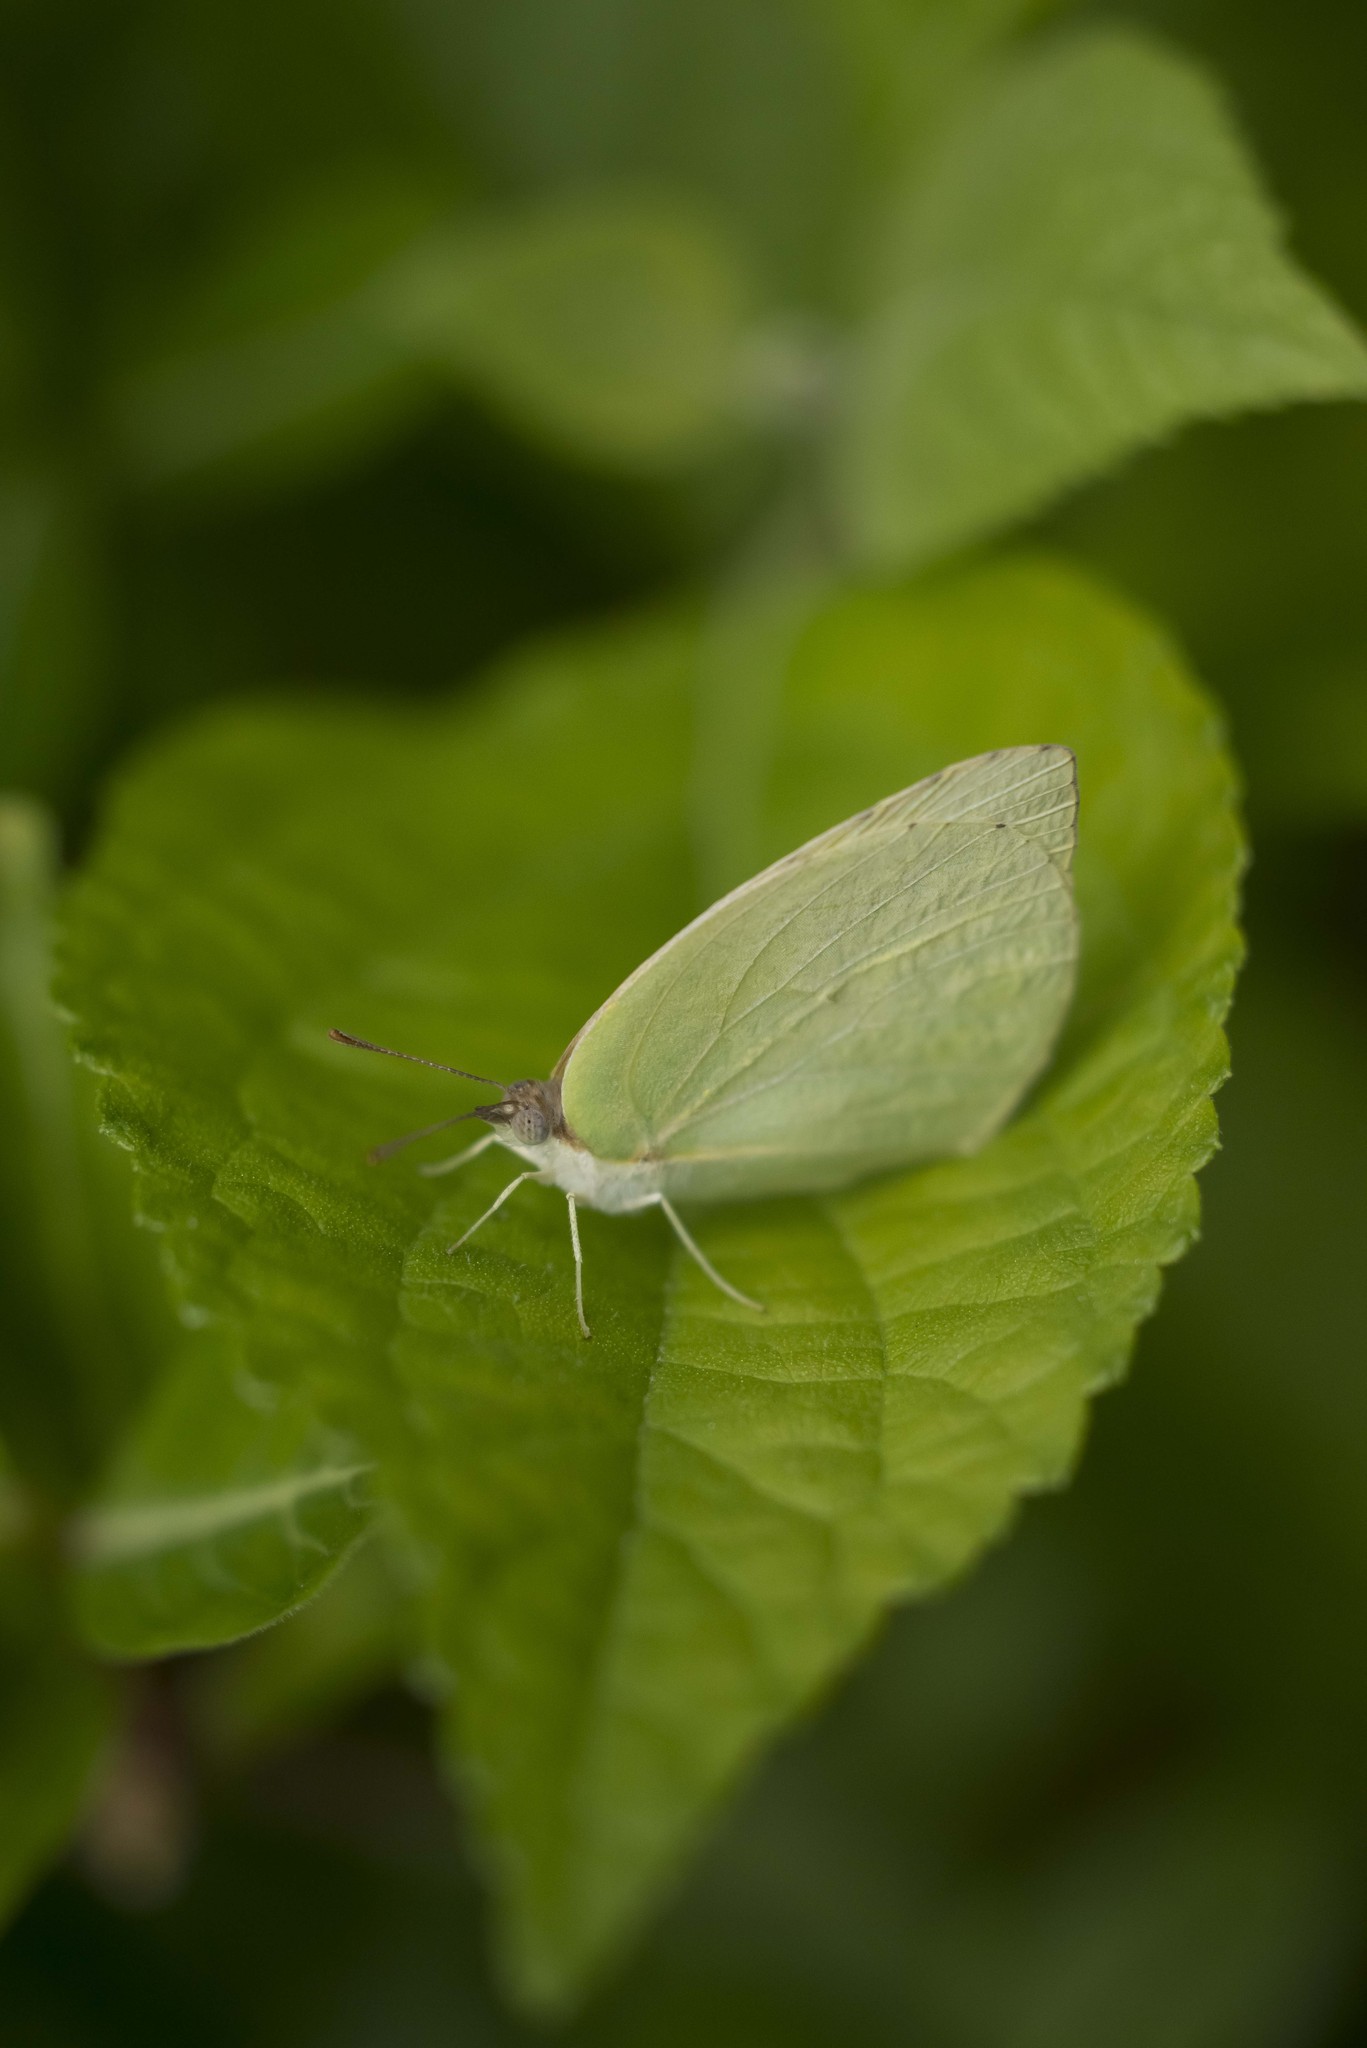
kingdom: Animalia
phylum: Arthropoda
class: Insecta
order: Lepidoptera
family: Pieridae
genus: Kricogonia
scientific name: Kricogonia lyside
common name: Guayacan sulphur,
